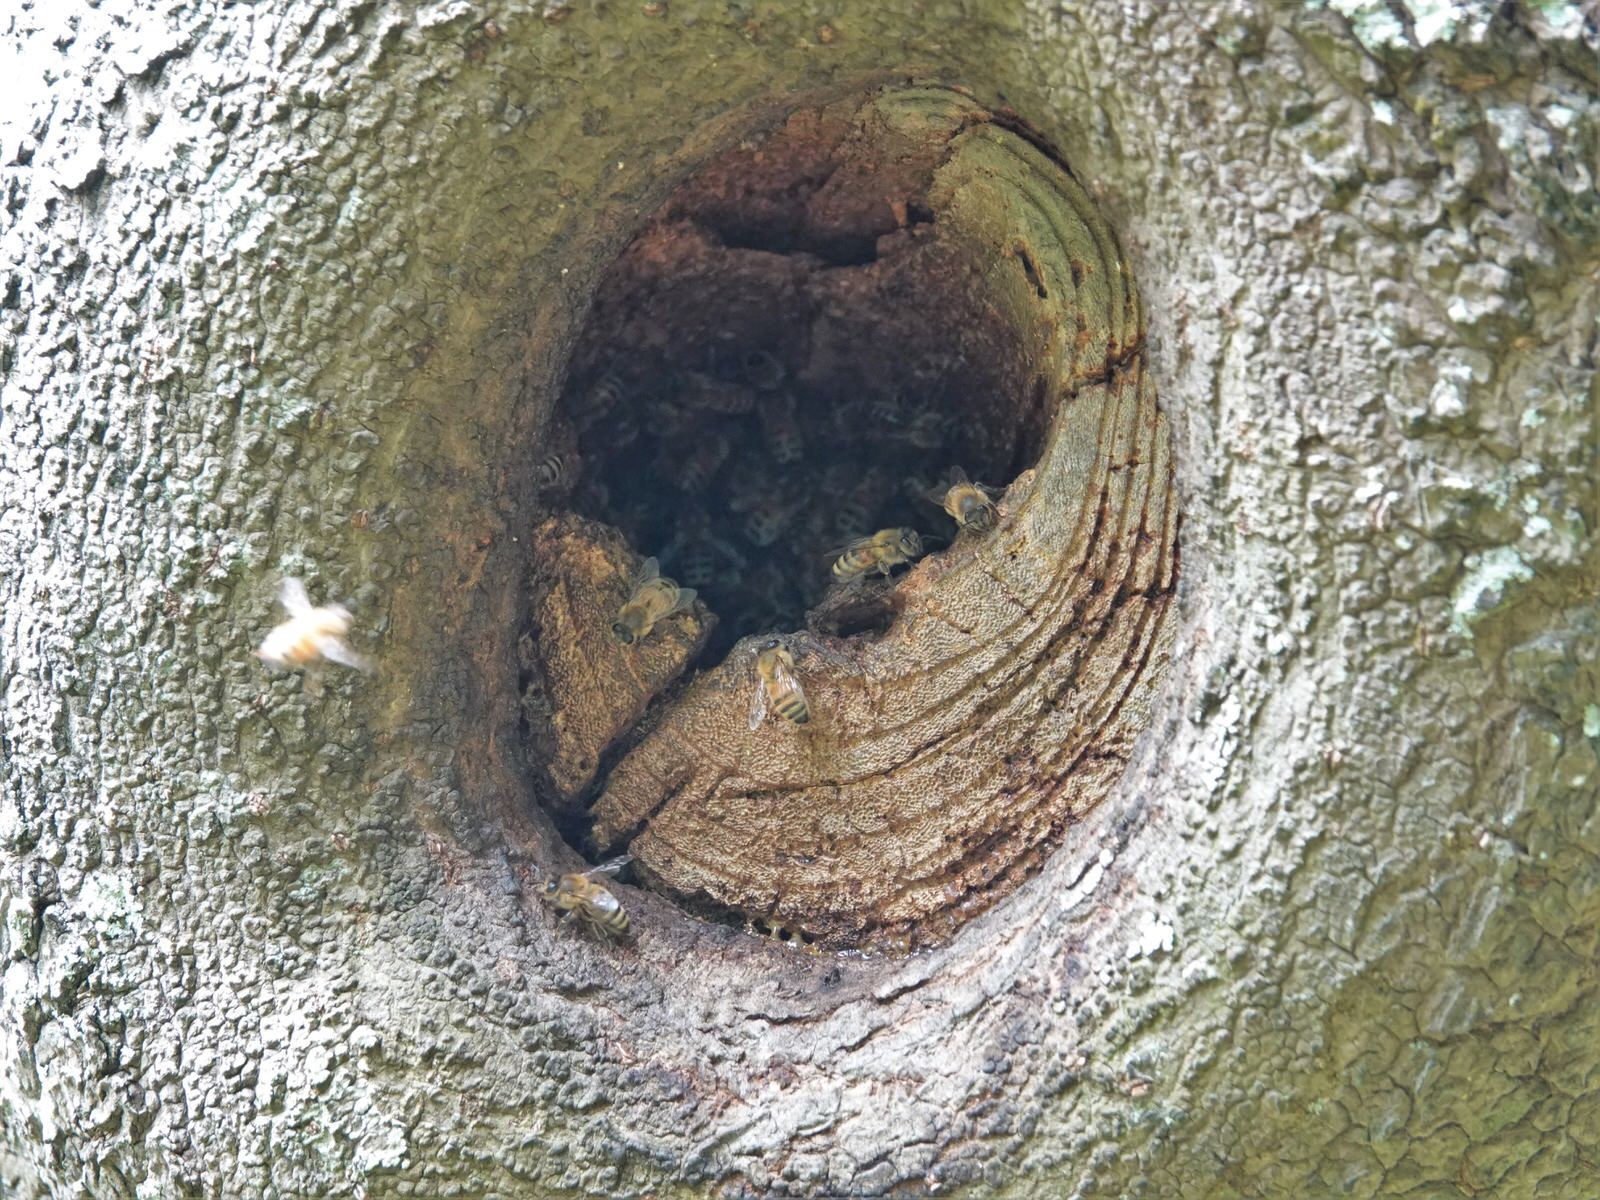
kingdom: Animalia
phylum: Arthropoda
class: Insecta
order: Hymenoptera
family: Apidae
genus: Apis
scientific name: Apis mellifera
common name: Honey bee
